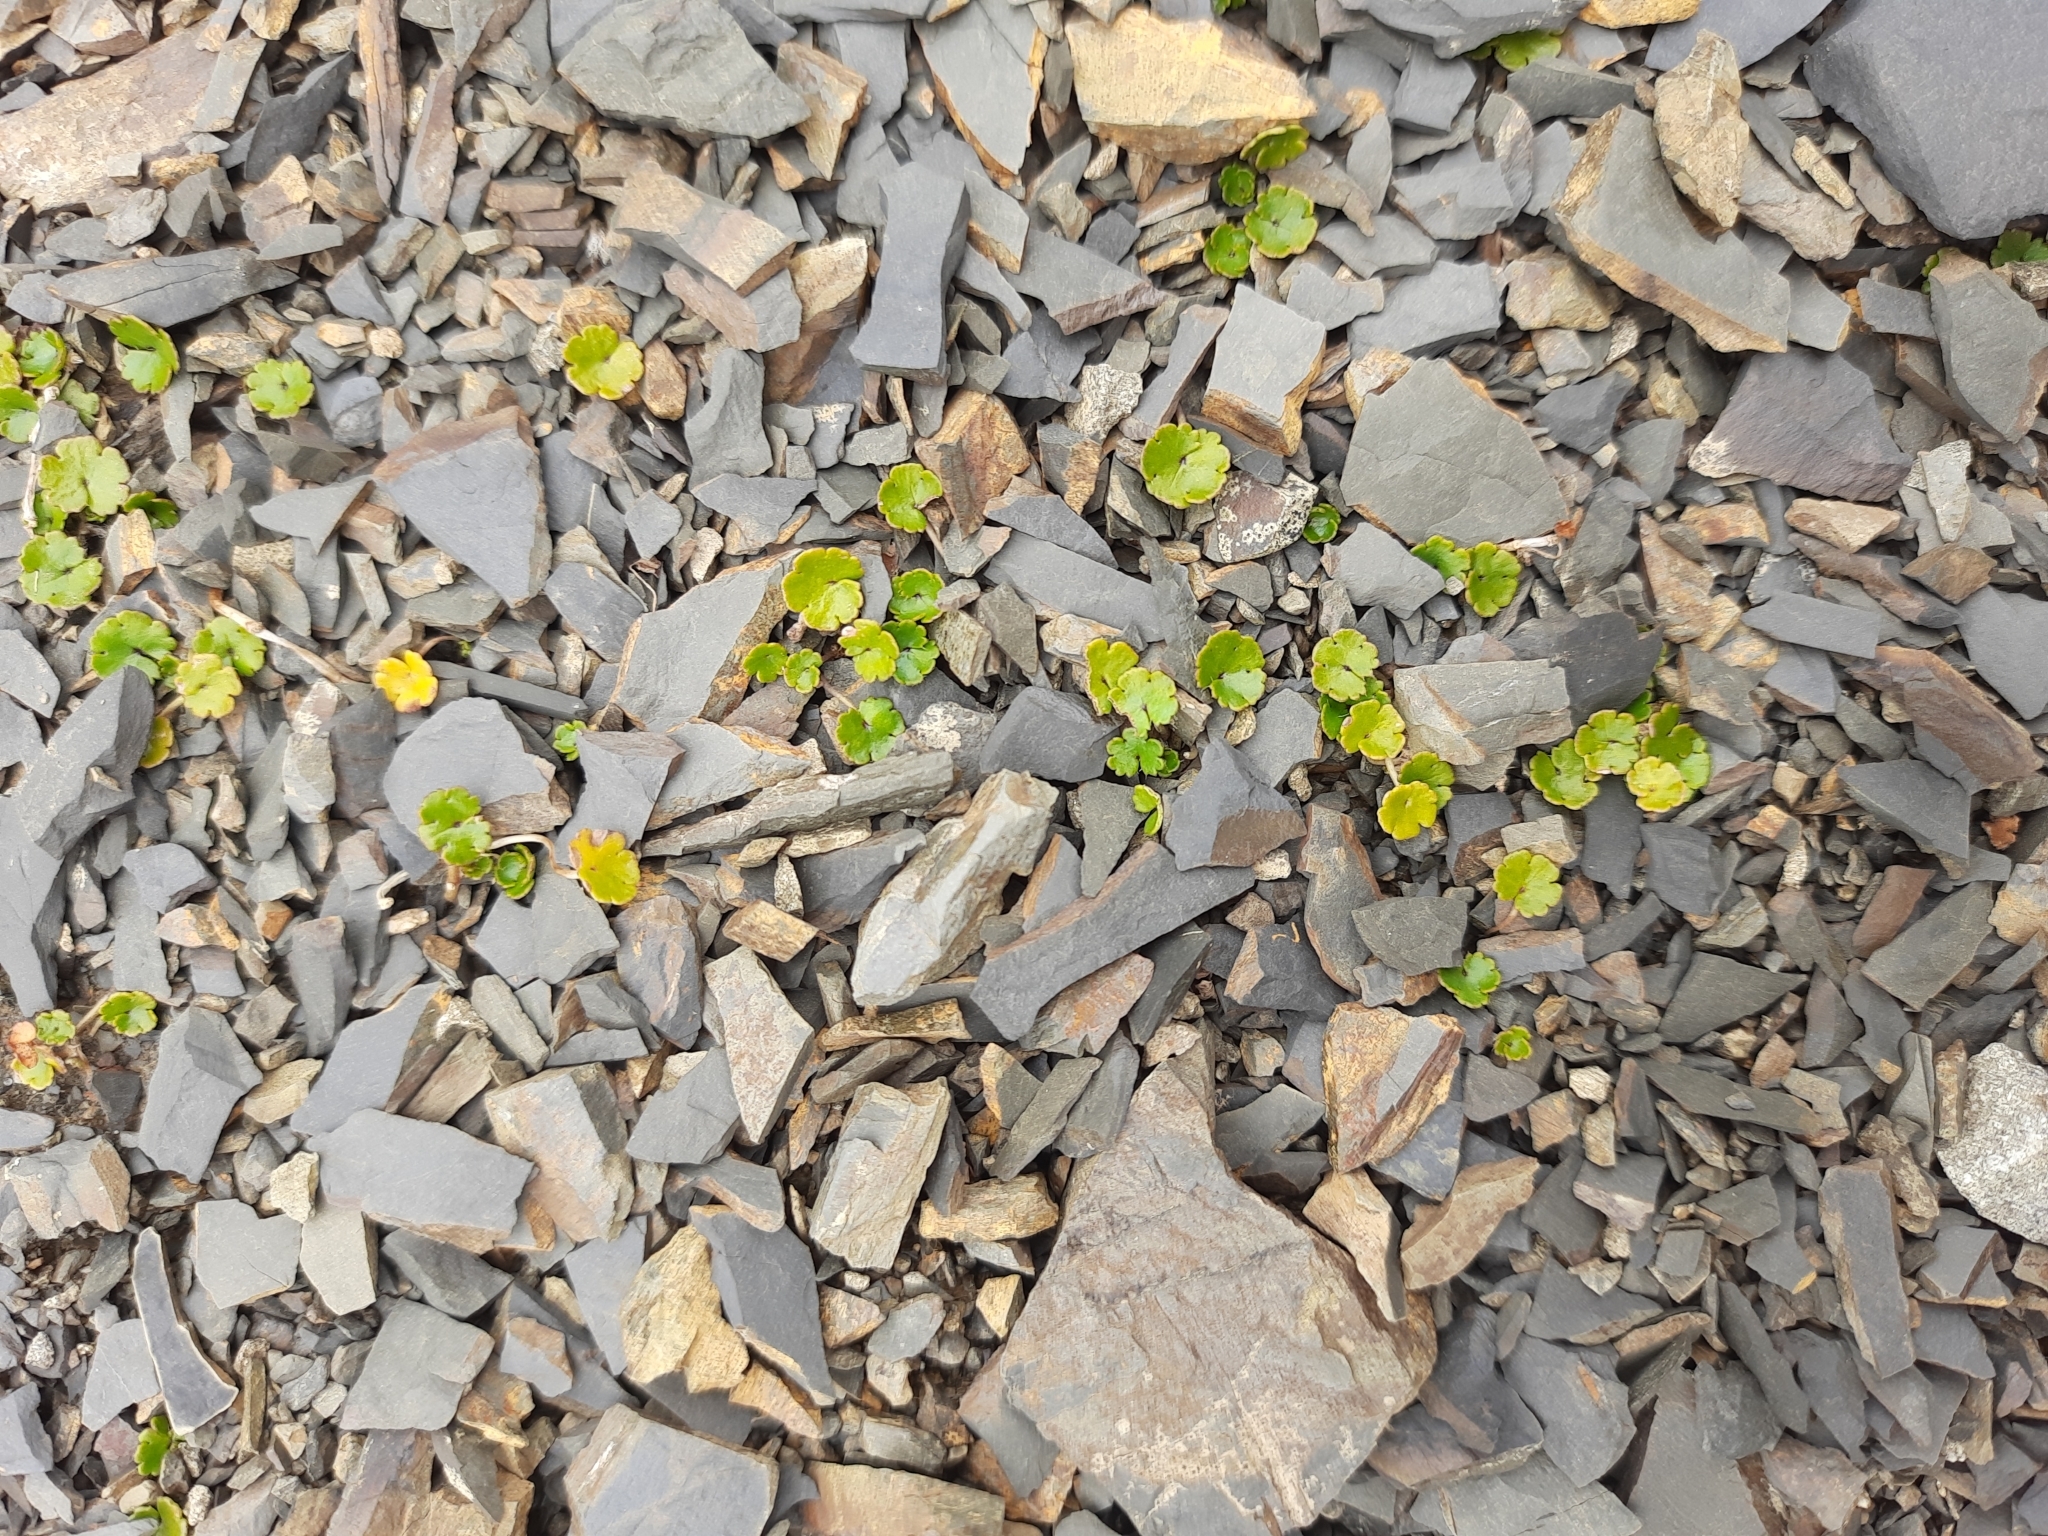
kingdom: Plantae
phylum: Tracheophyta
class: Magnoliopsida
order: Apiales
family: Araliaceae
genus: Hydrocotyle
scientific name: Hydrocotyle novae-zeelandiae
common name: New zealand pennywort
